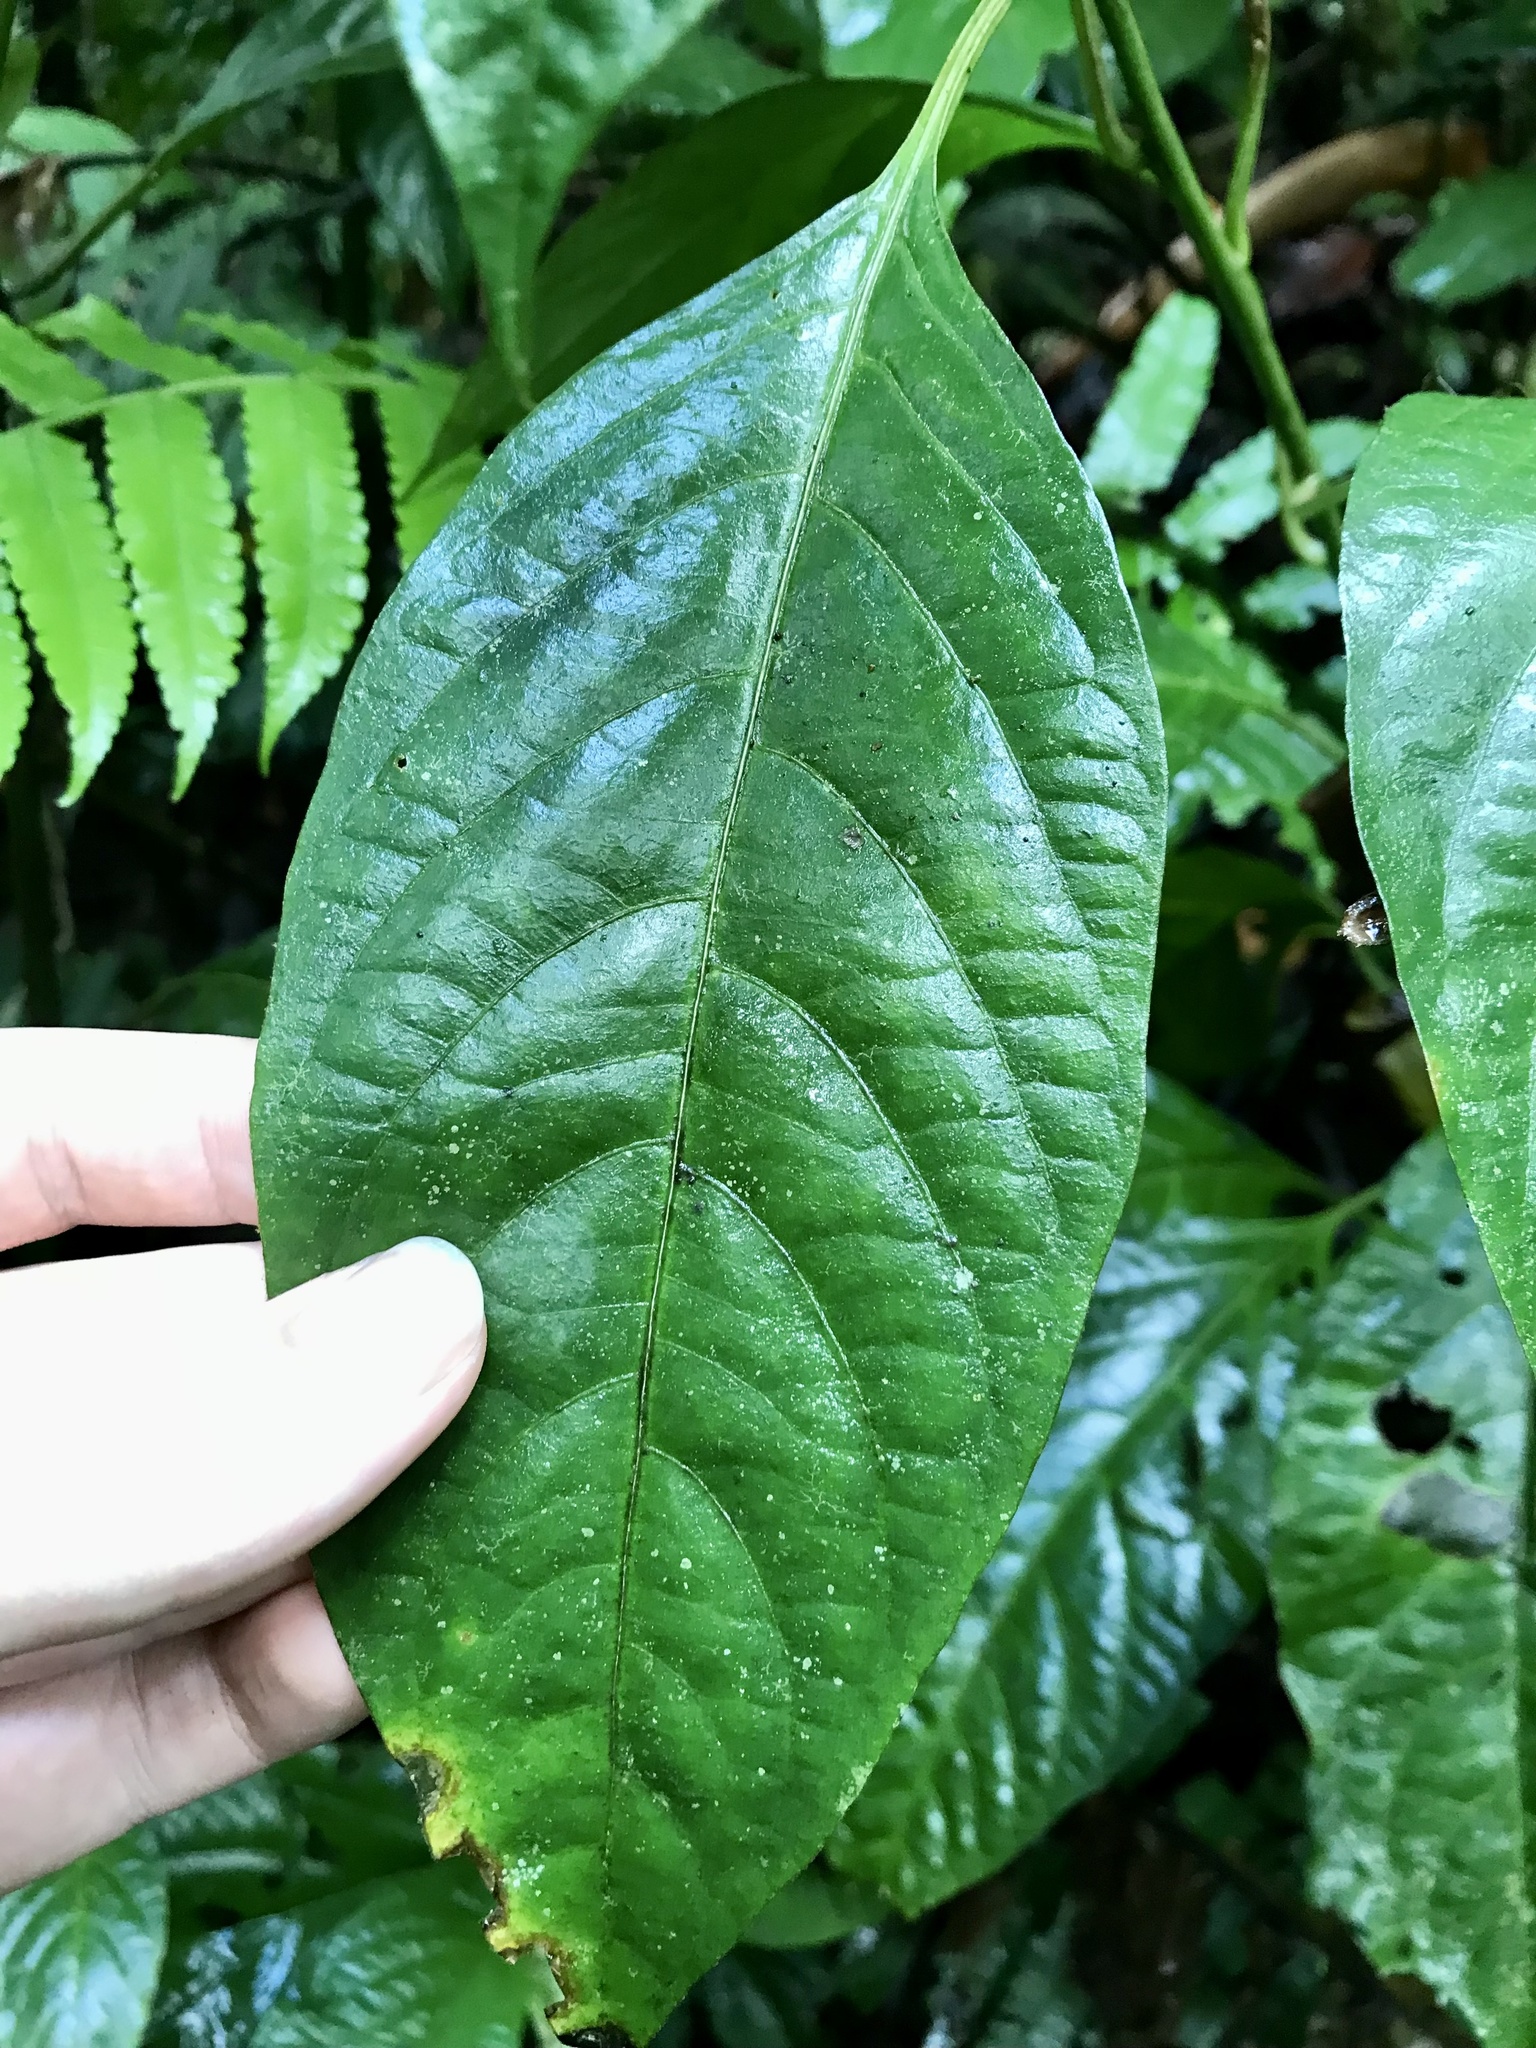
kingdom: Plantae
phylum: Tracheophyta
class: Magnoliopsida
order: Caryophyllales
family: Amaranthaceae
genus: Pleuropetalum
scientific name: Pleuropetalum sprucei
